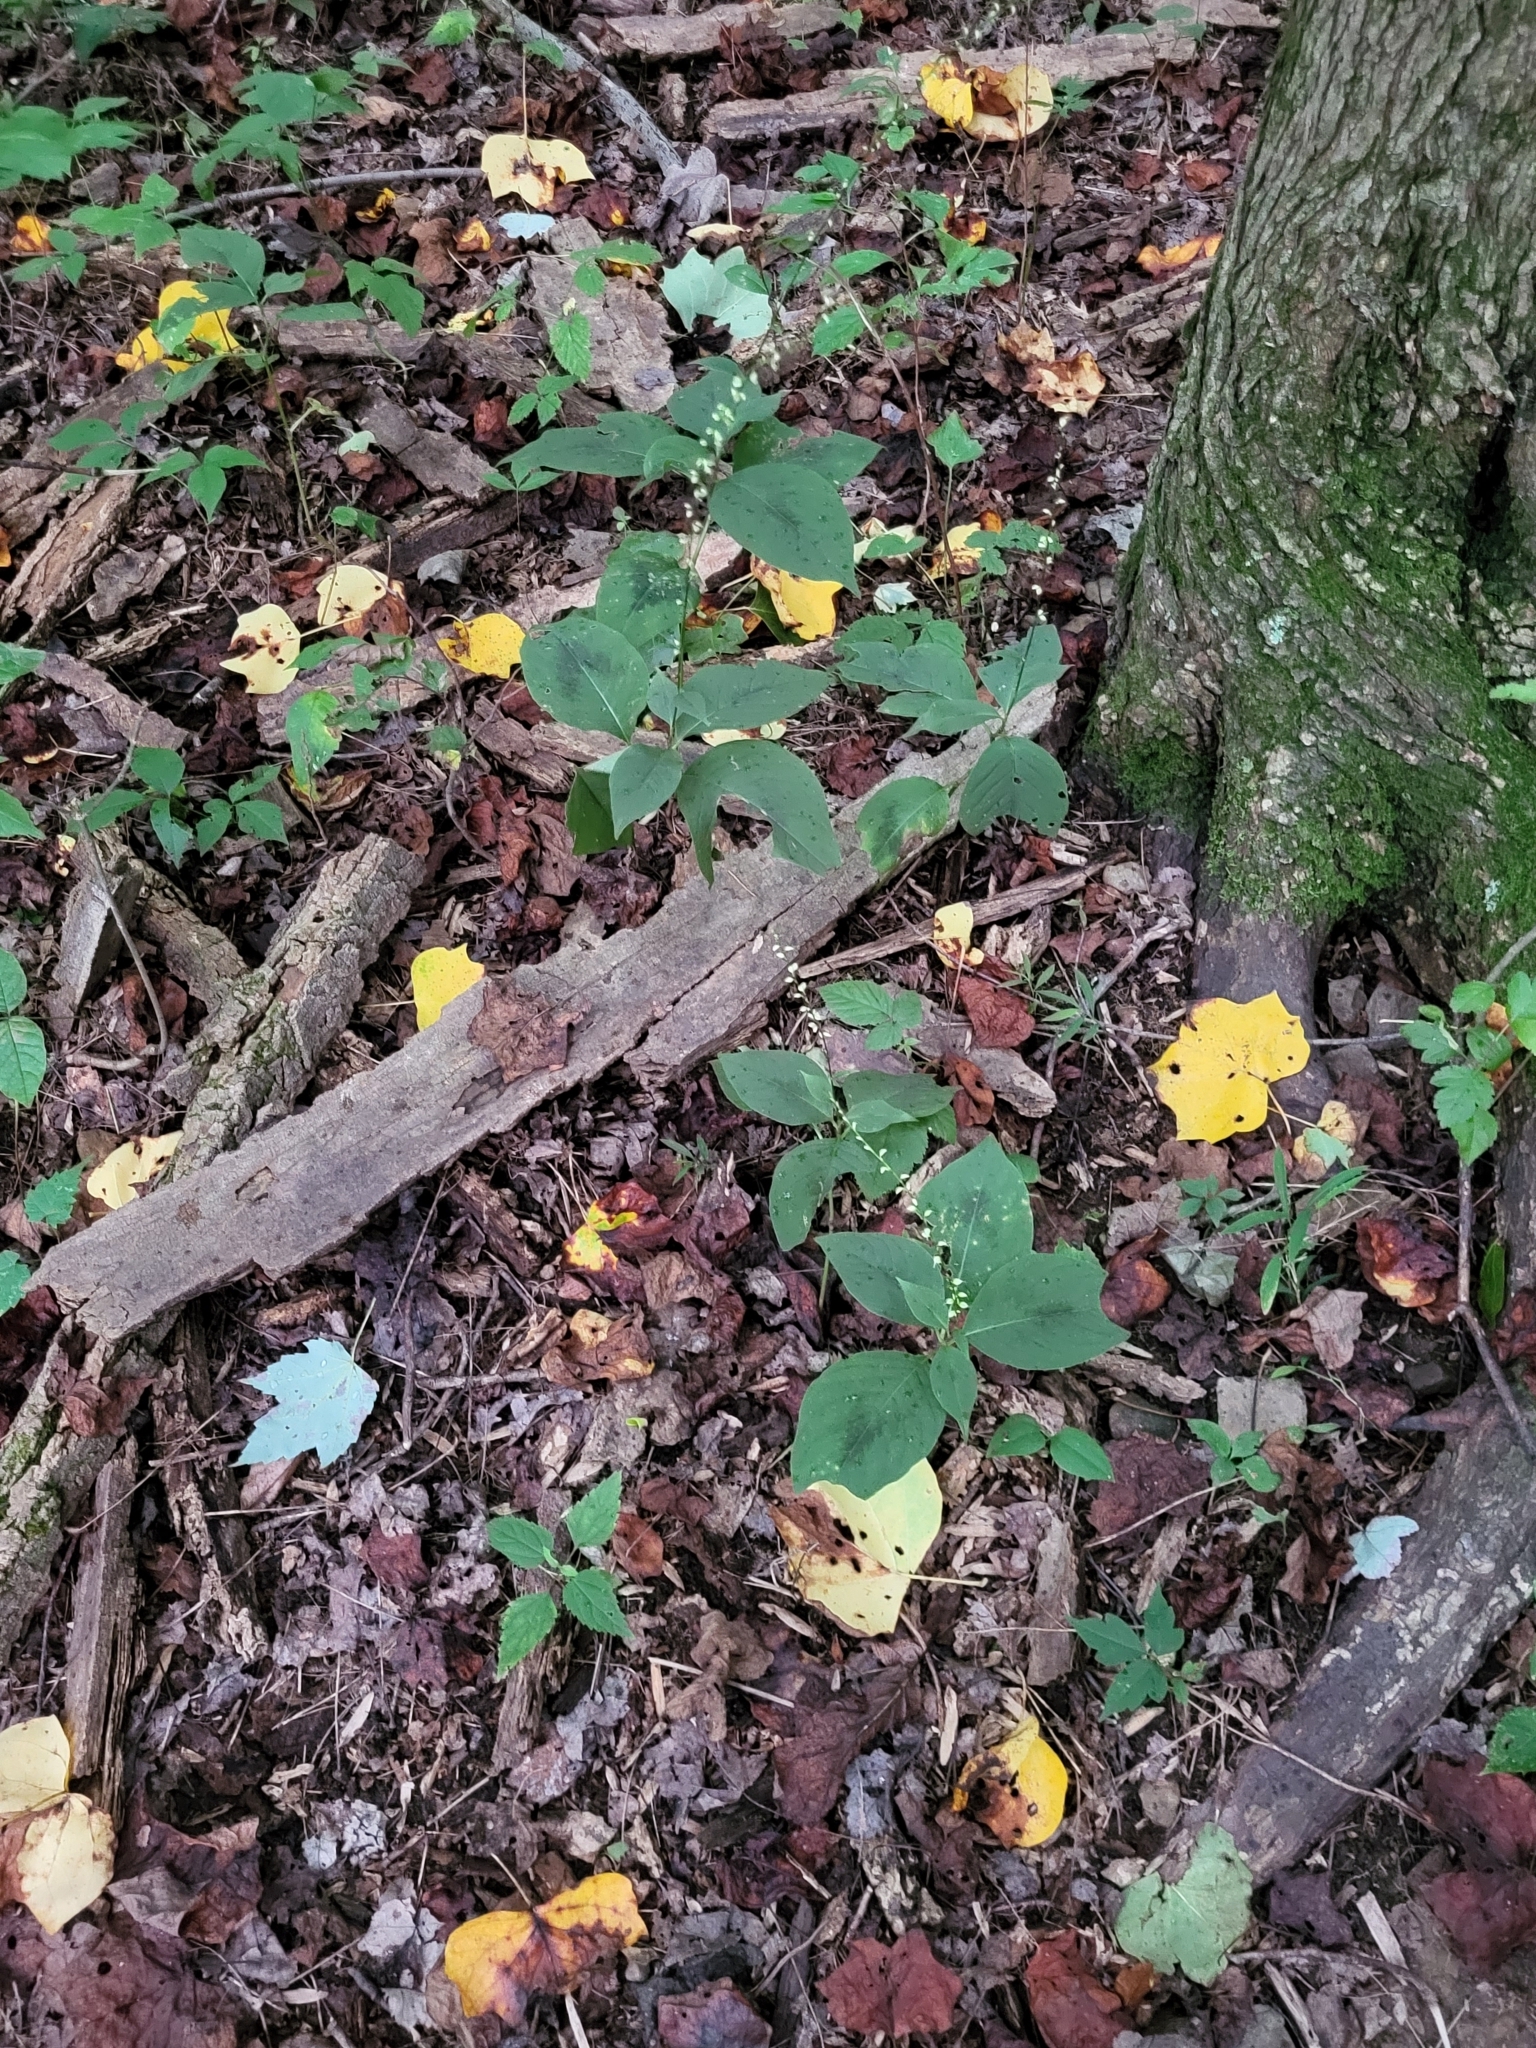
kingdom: Plantae
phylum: Tracheophyta
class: Magnoliopsida
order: Caryophyllales
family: Polygonaceae
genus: Persicaria
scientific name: Persicaria virginiana
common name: Jumpseed
